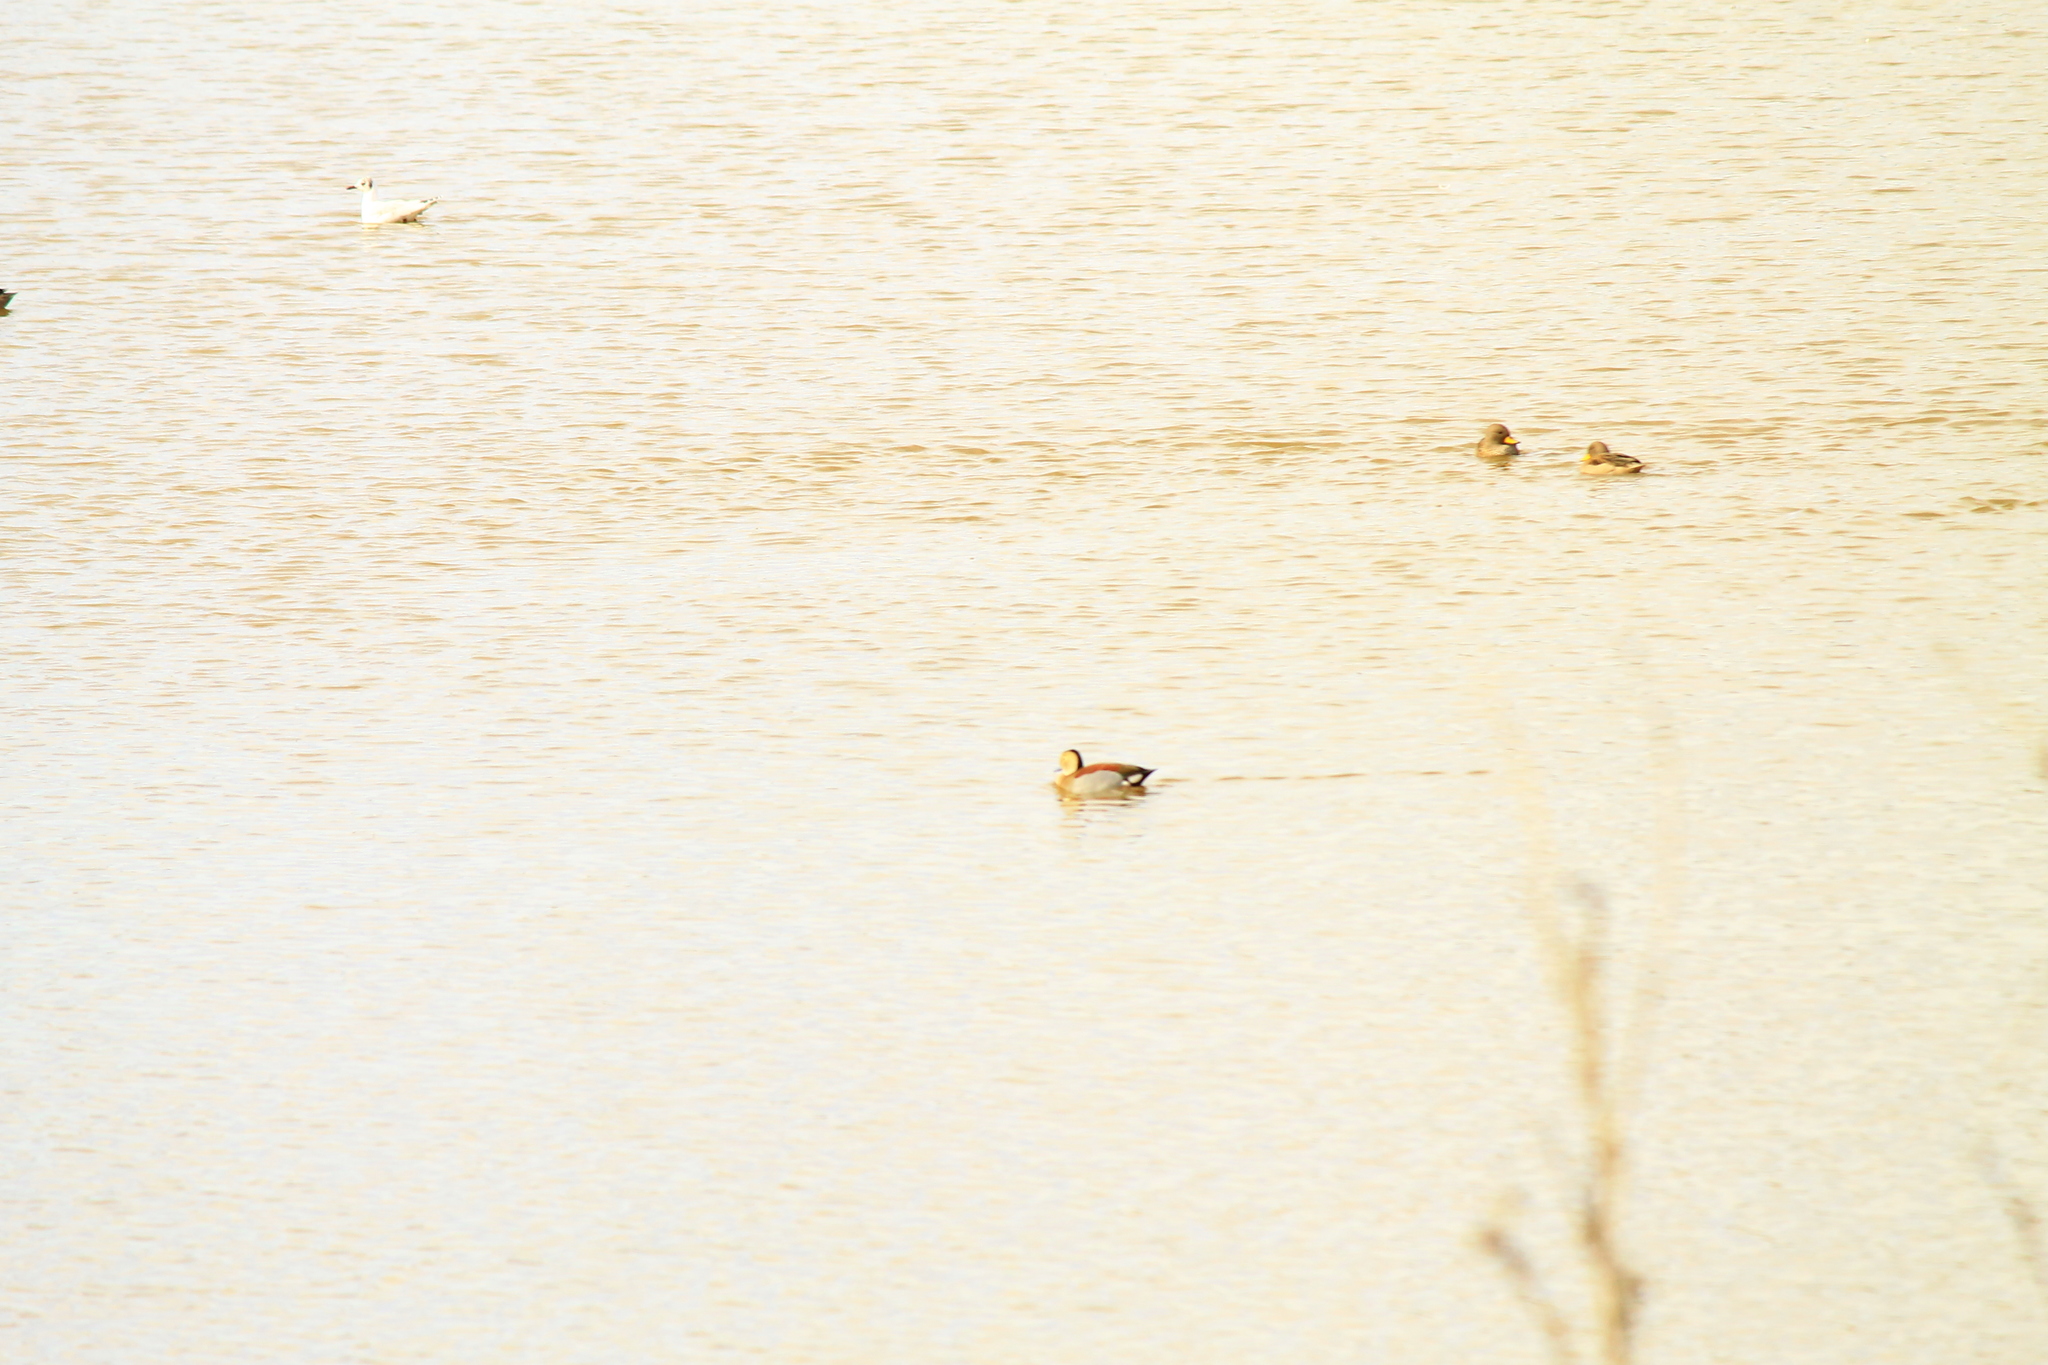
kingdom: Animalia
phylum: Chordata
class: Aves
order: Anseriformes
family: Anatidae
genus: Callonetta
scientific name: Callonetta leucophrys
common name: Ringed teal
